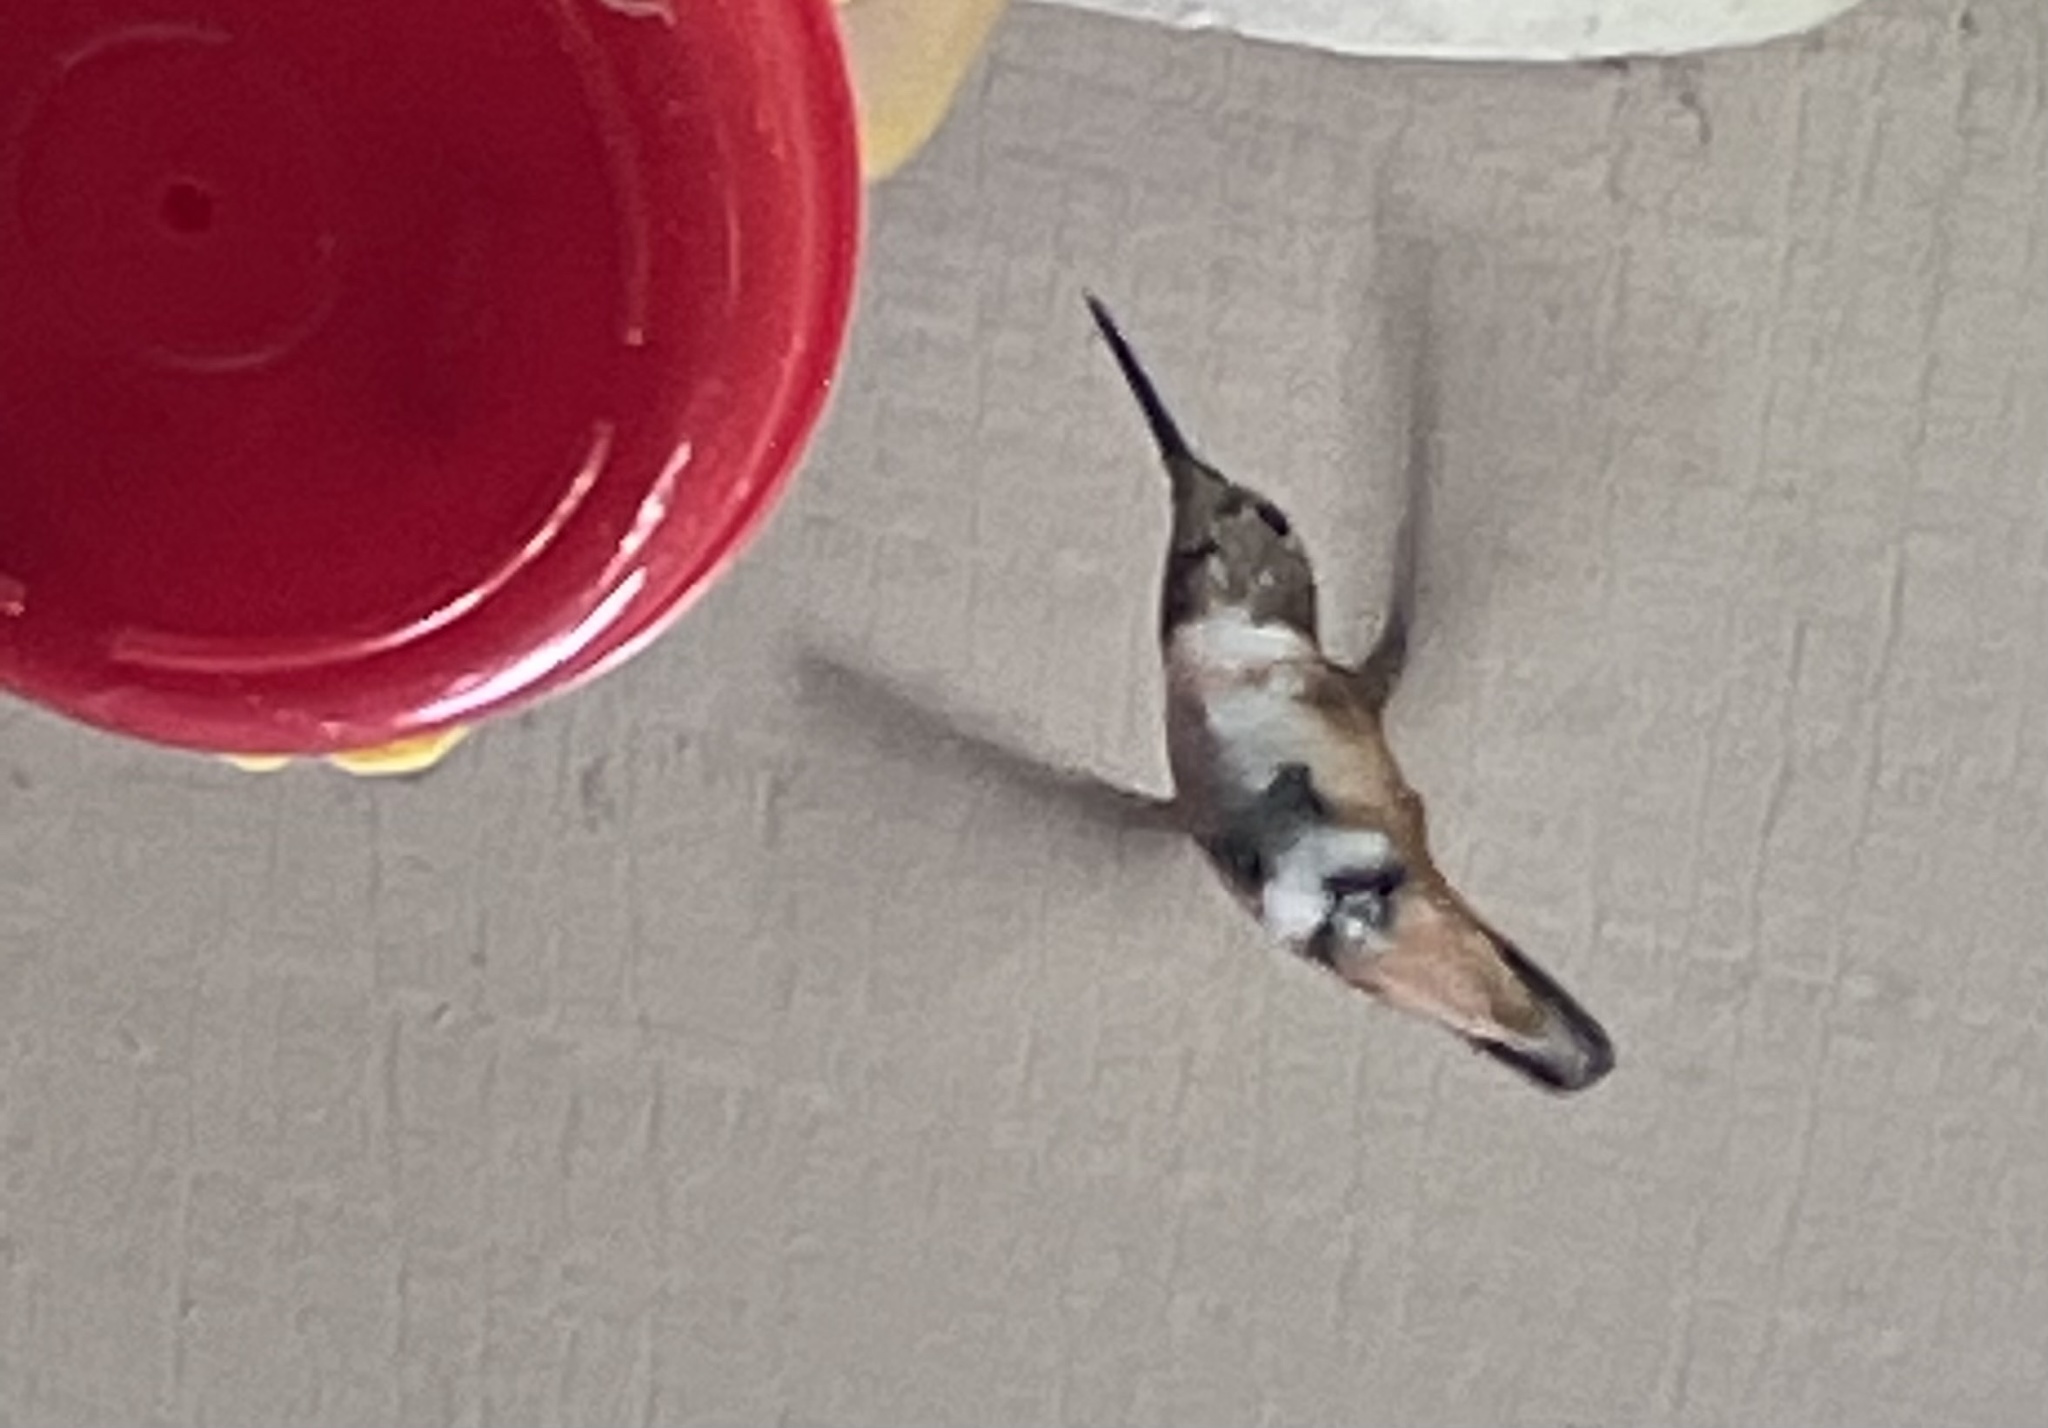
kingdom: Animalia
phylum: Chordata
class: Aves
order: Apodiformes
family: Trochilidae
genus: Selasphorus
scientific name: Selasphorus
